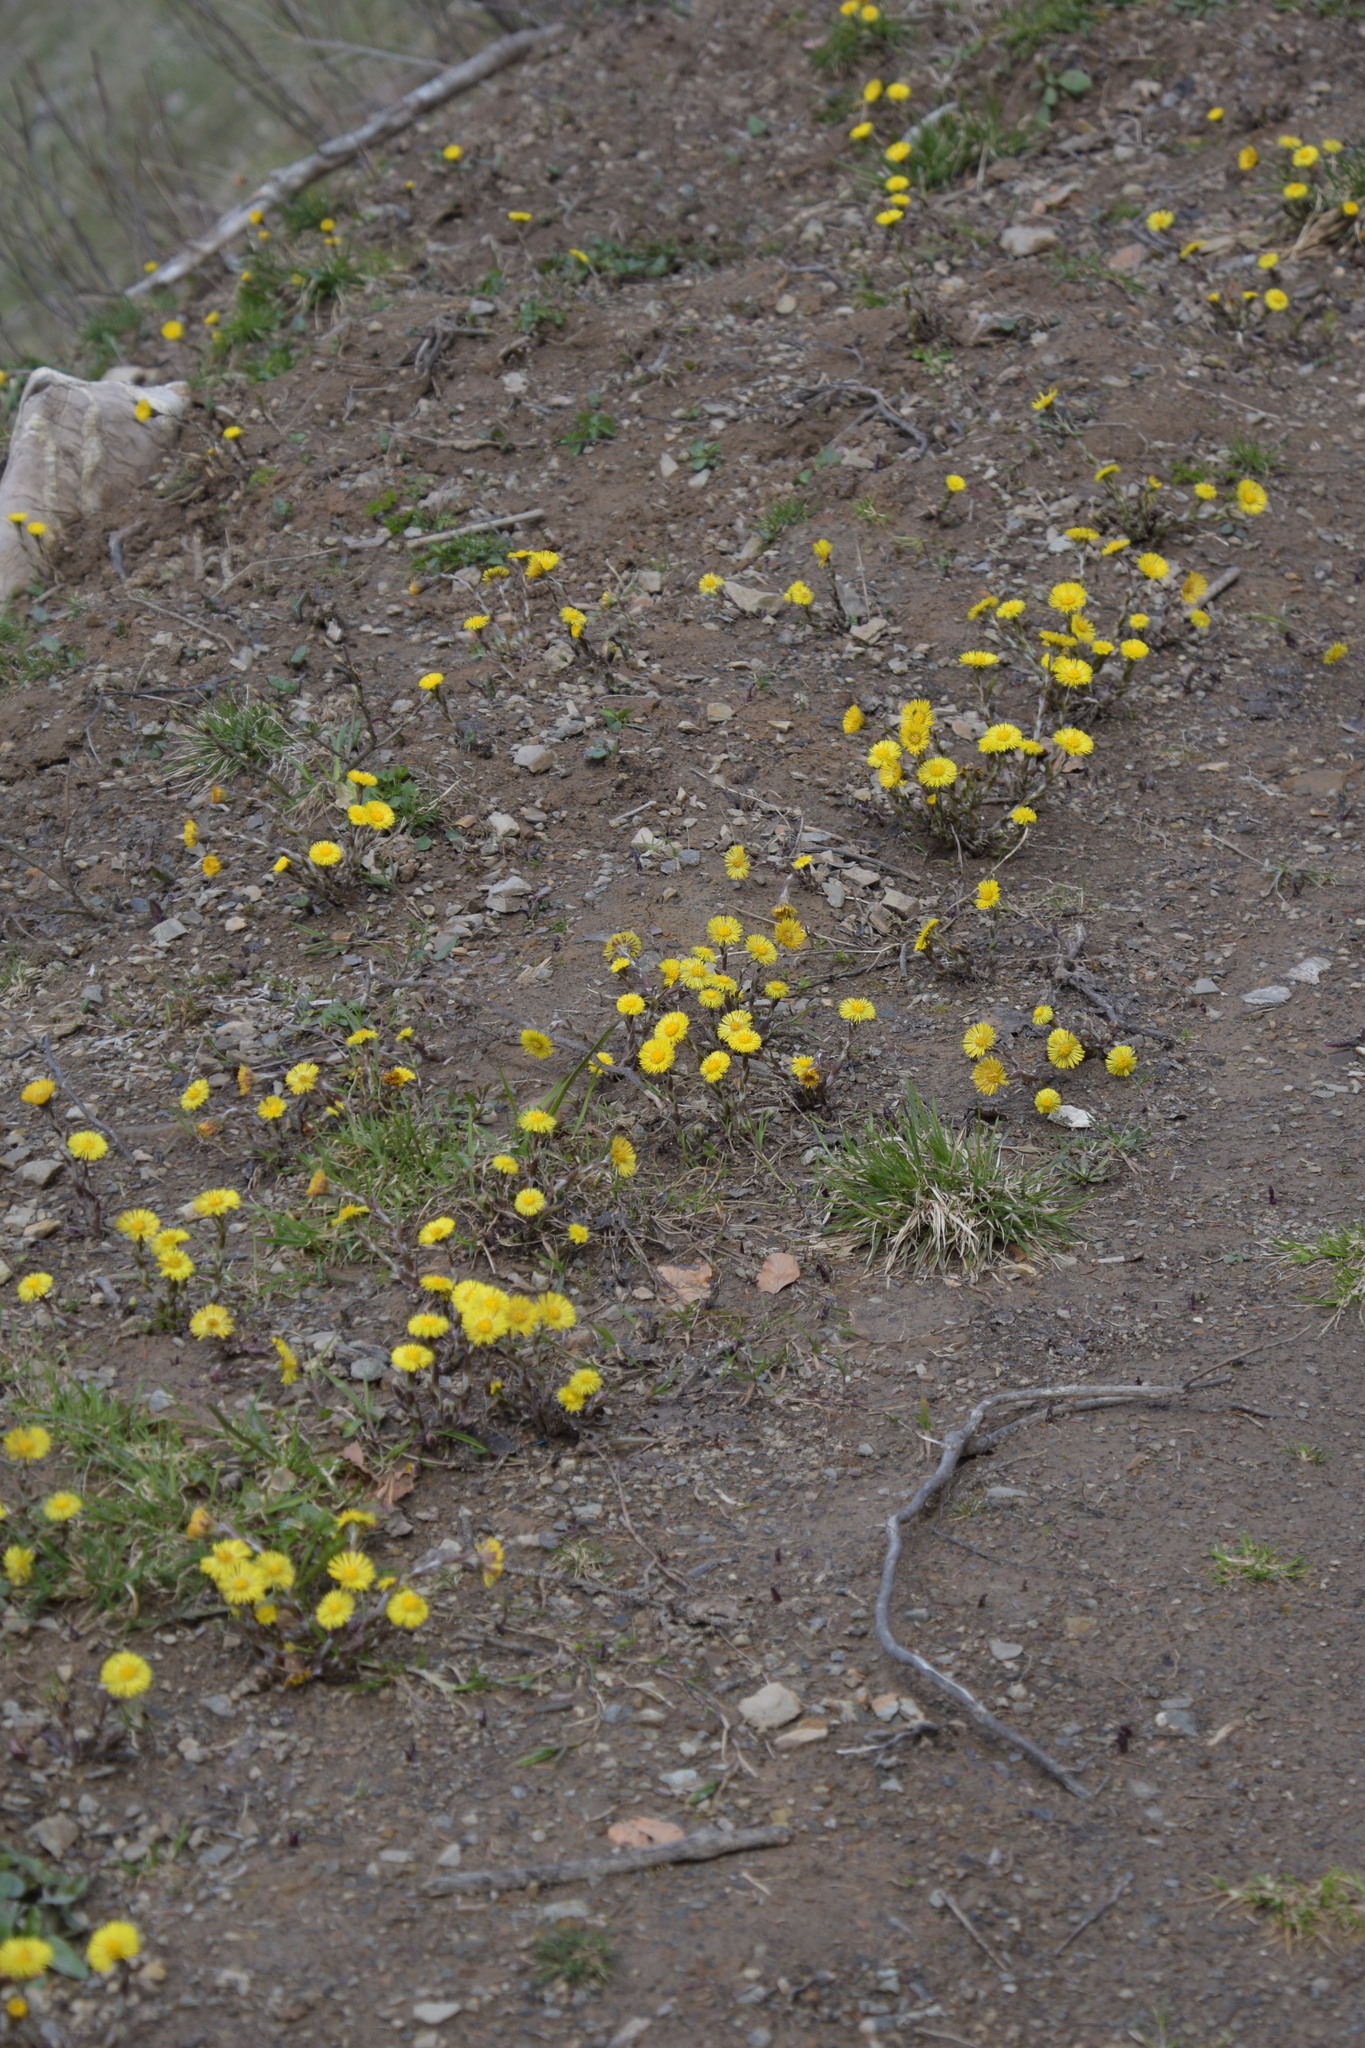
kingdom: Plantae
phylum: Tracheophyta
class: Magnoliopsida
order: Asterales
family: Asteraceae
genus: Tussilago
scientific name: Tussilago farfara
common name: Coltsfoot
